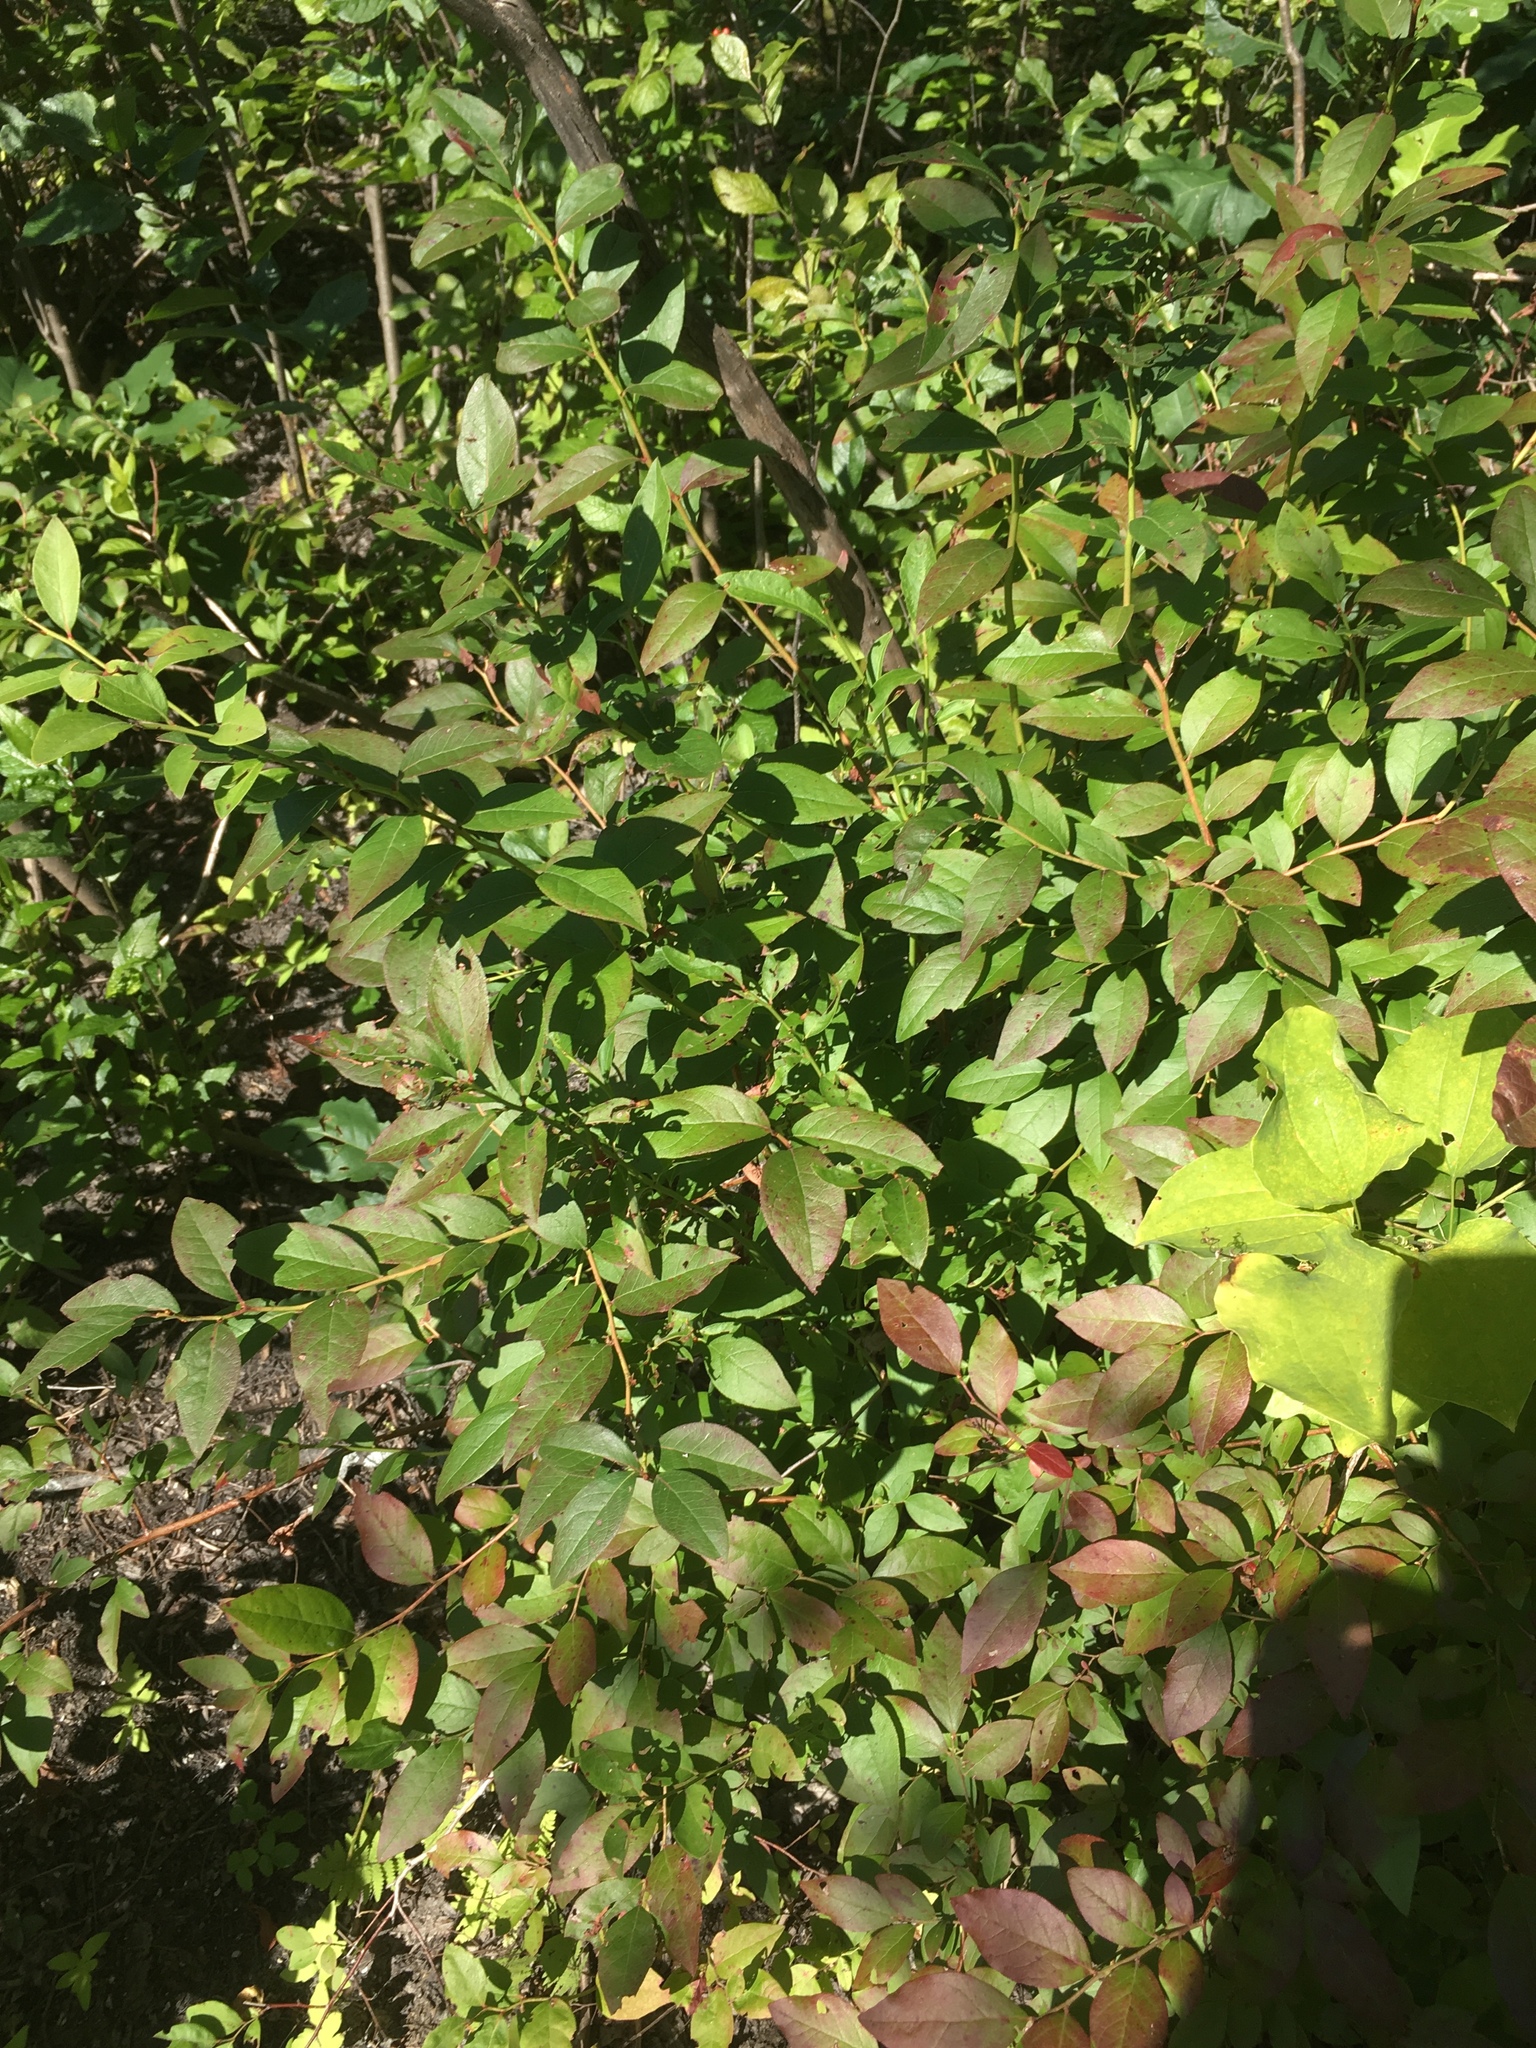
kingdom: Plantae
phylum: Tracheophyta
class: Magnoliopsida
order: Ericales
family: Ericaceae
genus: Vaccinium
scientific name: Vaccinium corymbosum
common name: Blueberry
